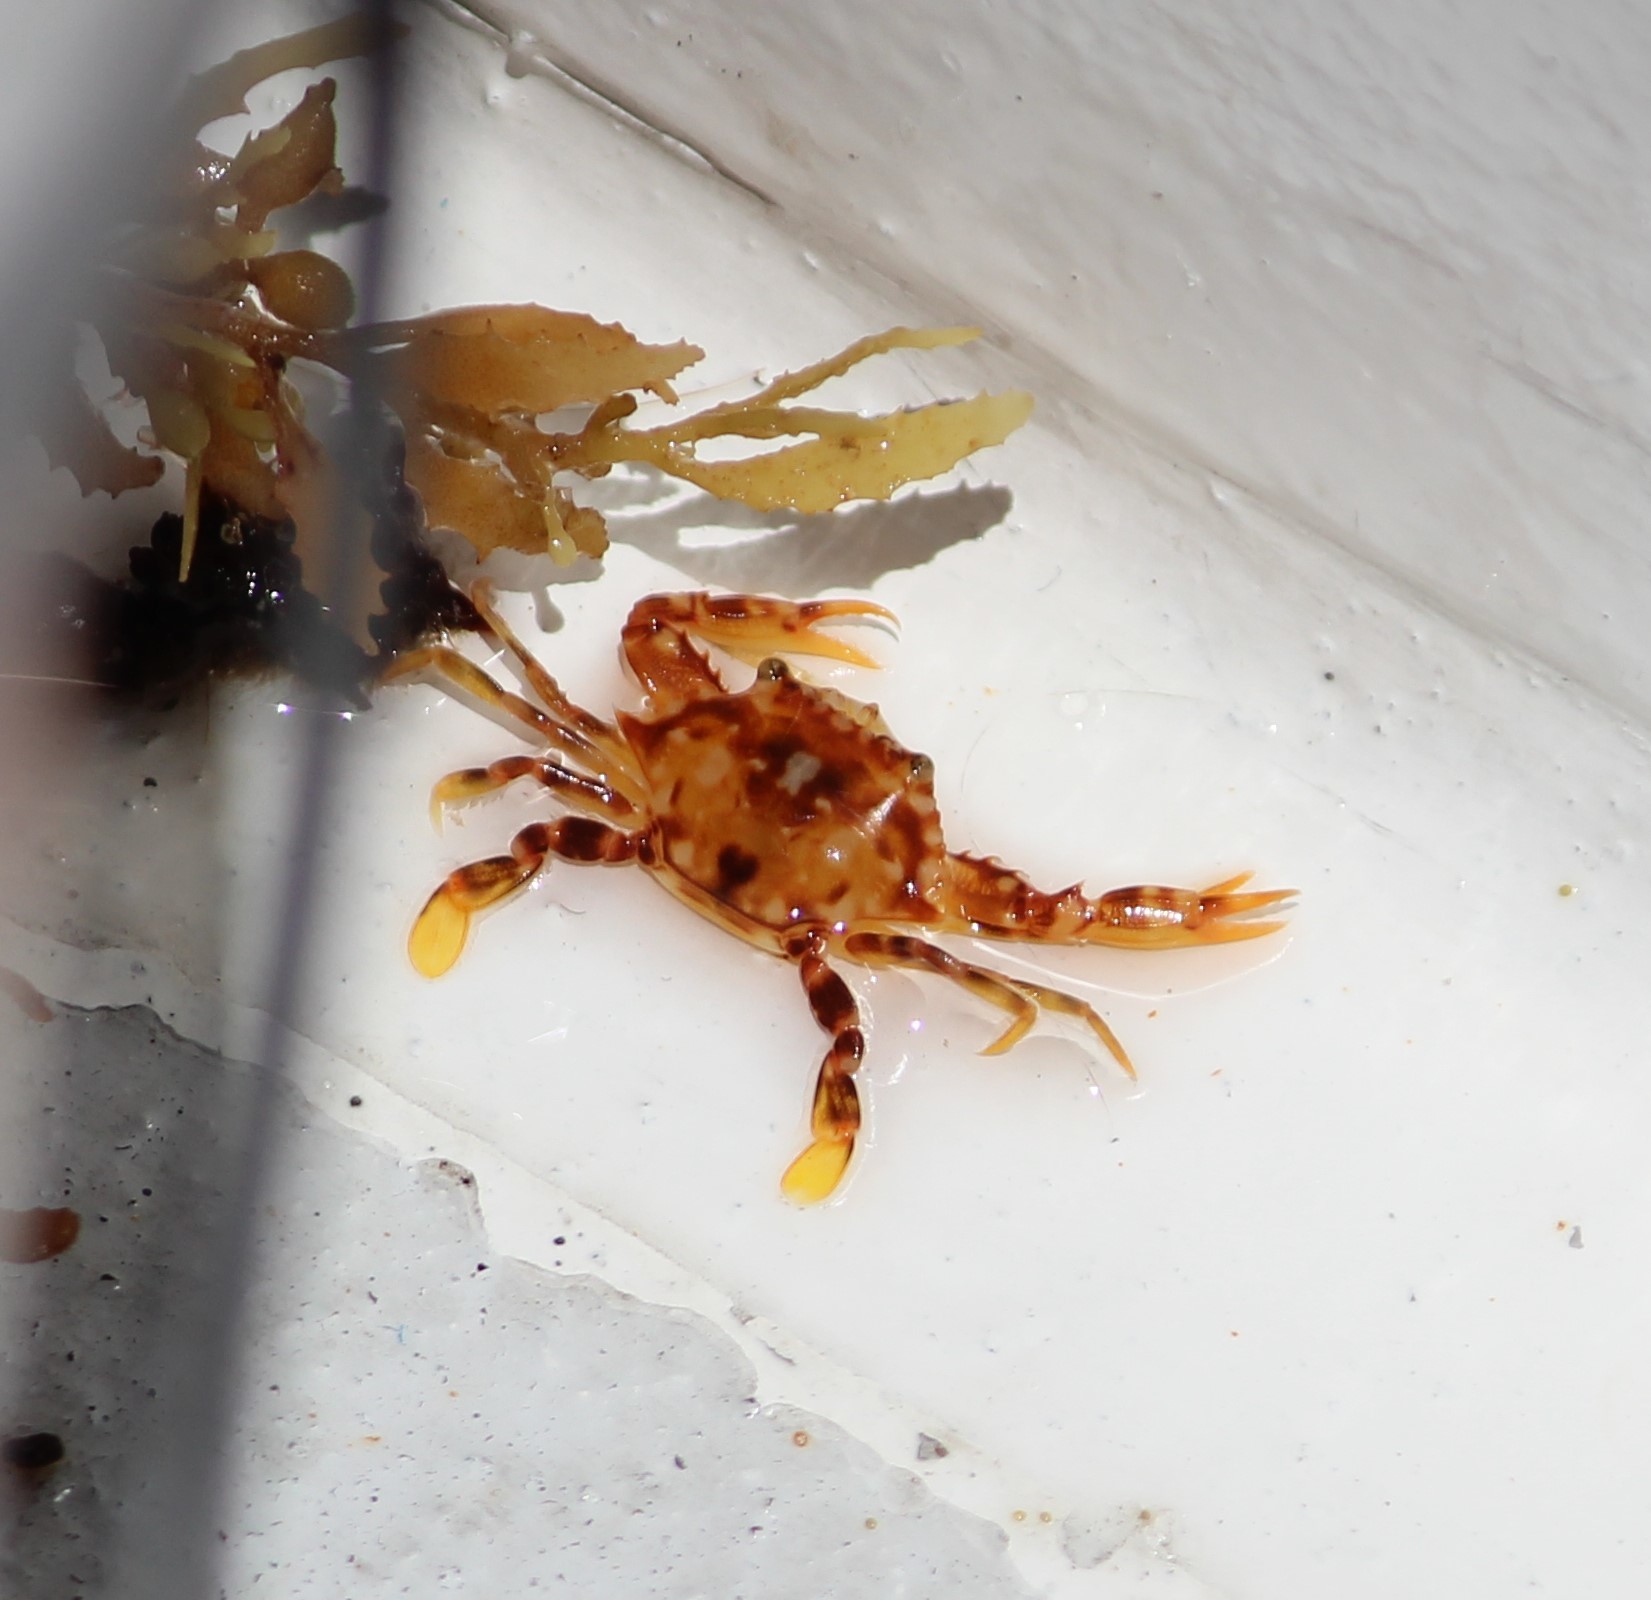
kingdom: Animalia
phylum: Arthropoda
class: Malacostraca
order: Decapoda
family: Portunidae
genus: Portunus
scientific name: Portunus sayi
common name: Sargassum crab
